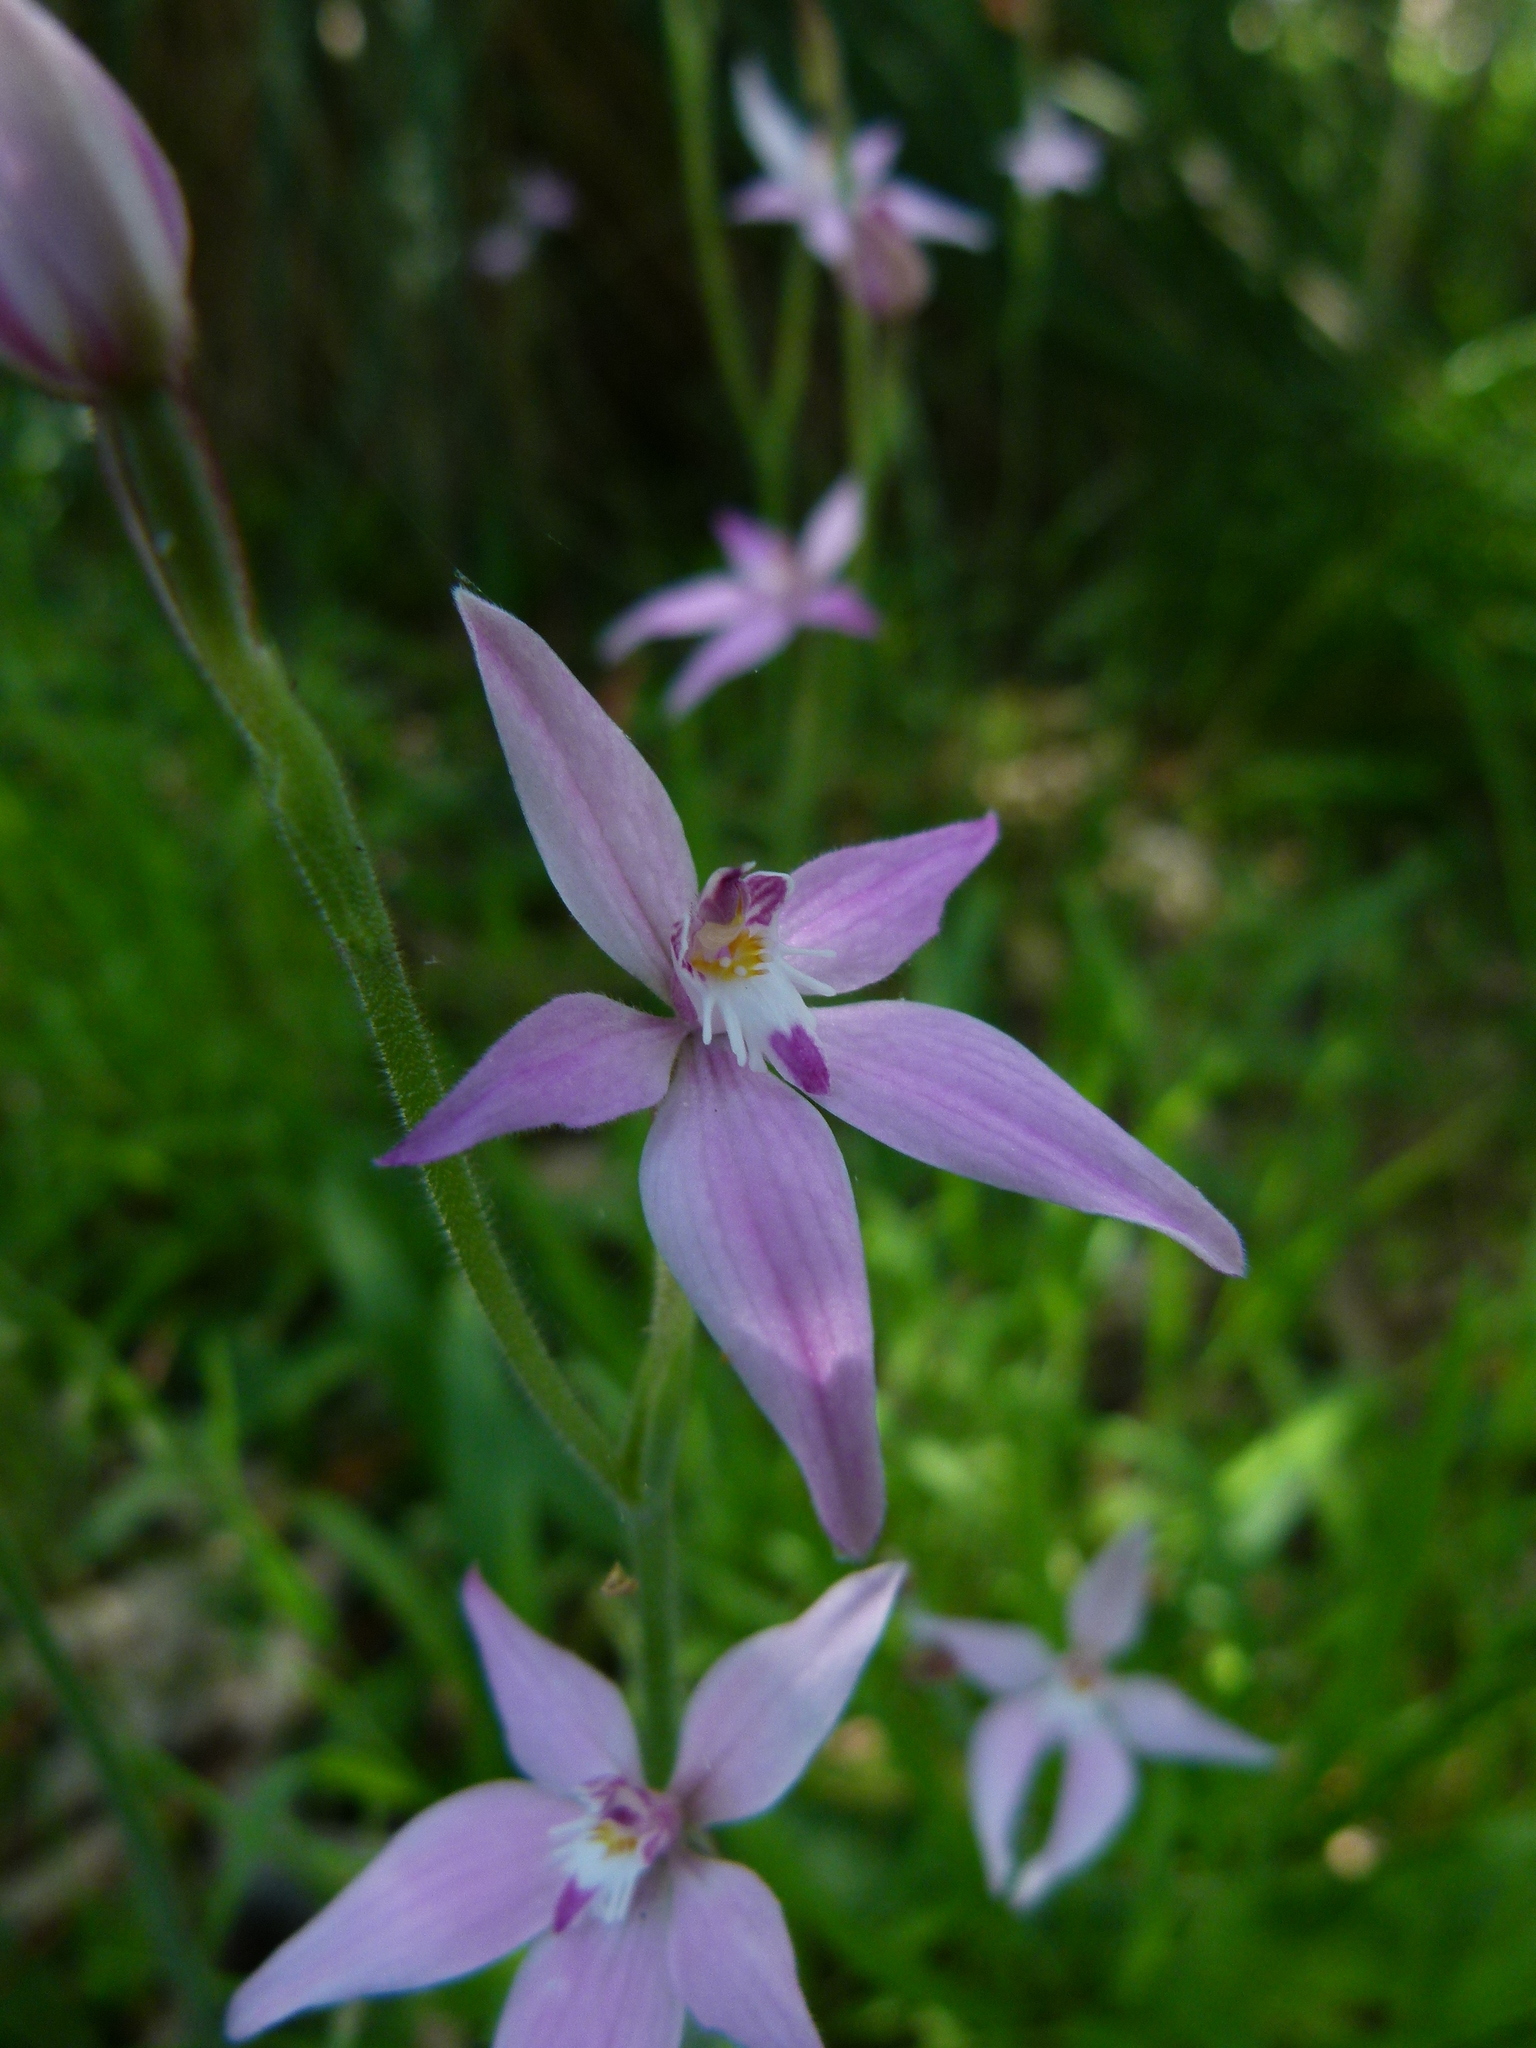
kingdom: Plantae
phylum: Tracheophyta
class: Liliopsida
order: Asparagales
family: Orchidaceae
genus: Caladenia
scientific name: Caladenia latifolia
